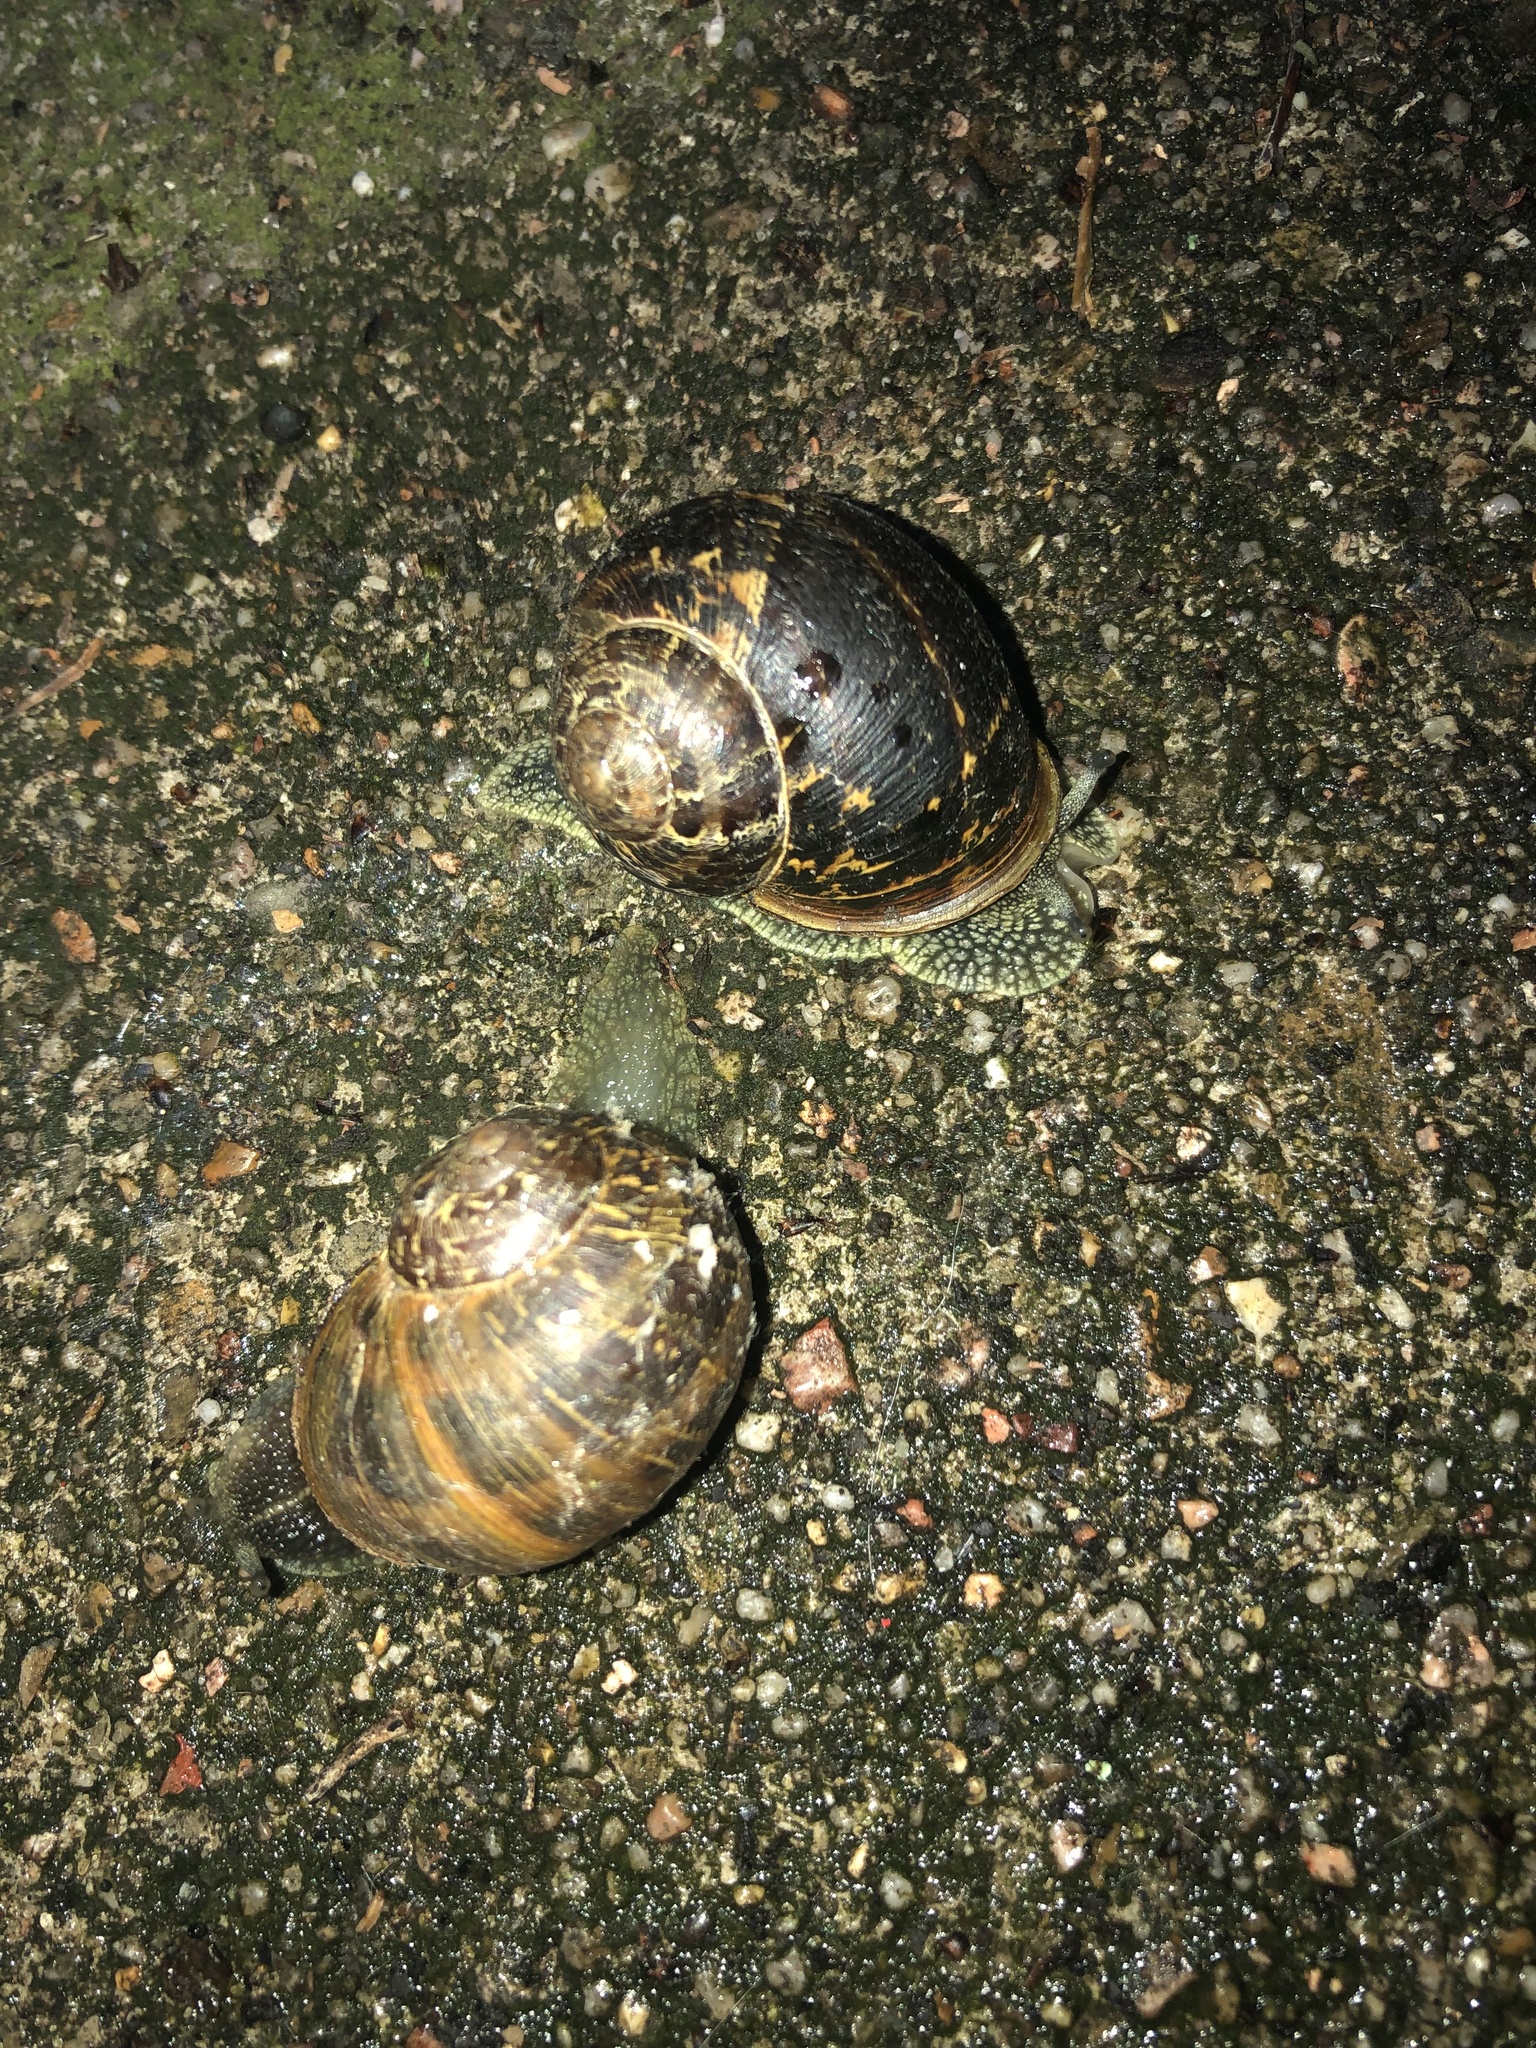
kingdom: Animalia
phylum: Mollusca
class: Gastropoda
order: Stylommatophora
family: Helicidae
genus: Cornu
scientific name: Cornu aspersum
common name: Brown garden snail
